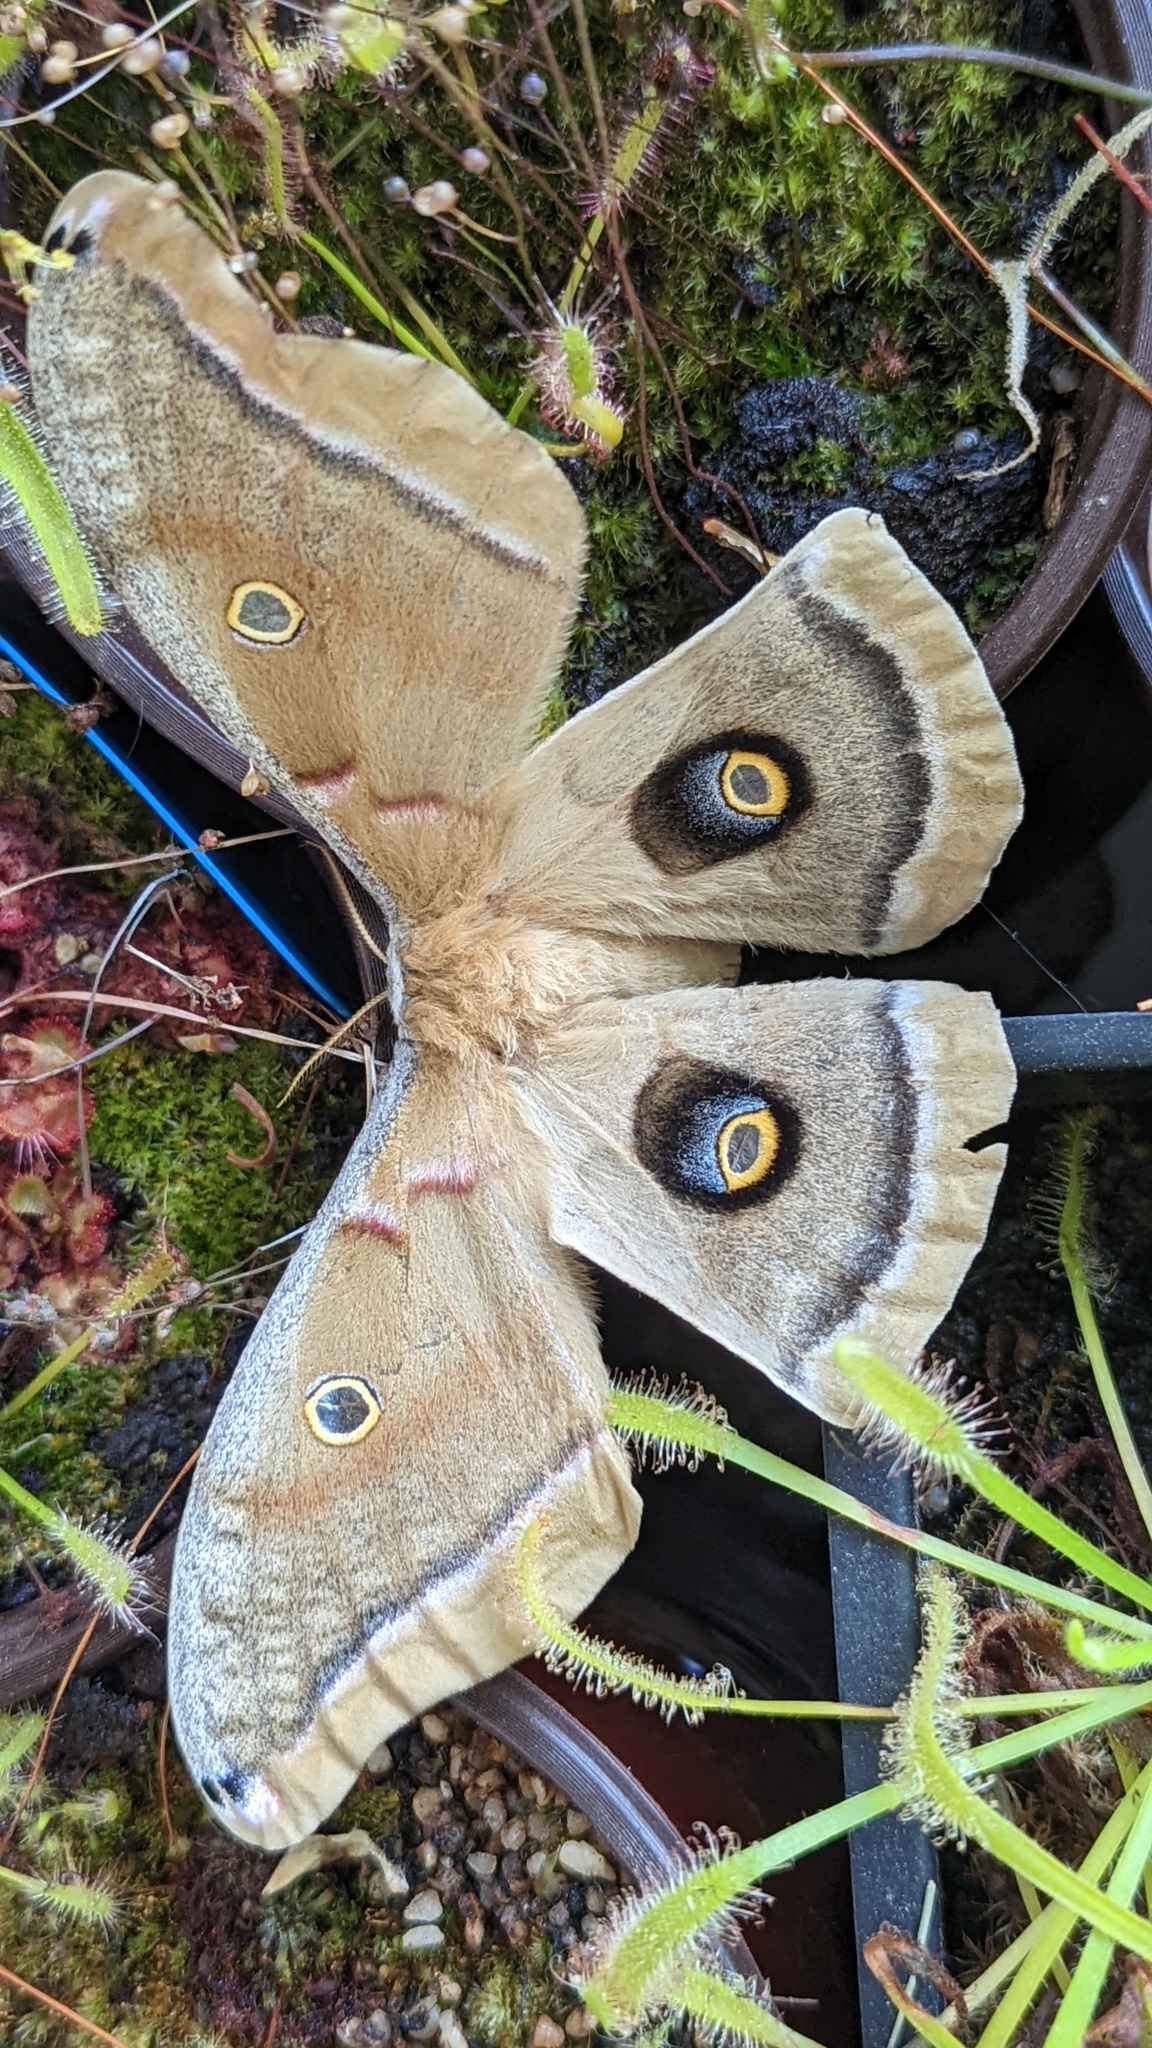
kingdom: Animalia
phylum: Arthropoda
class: Insecta
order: Lepidoptera
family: Saturniidae
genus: Antheraea
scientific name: Antheraea polyphemus
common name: Polyphemus moth
